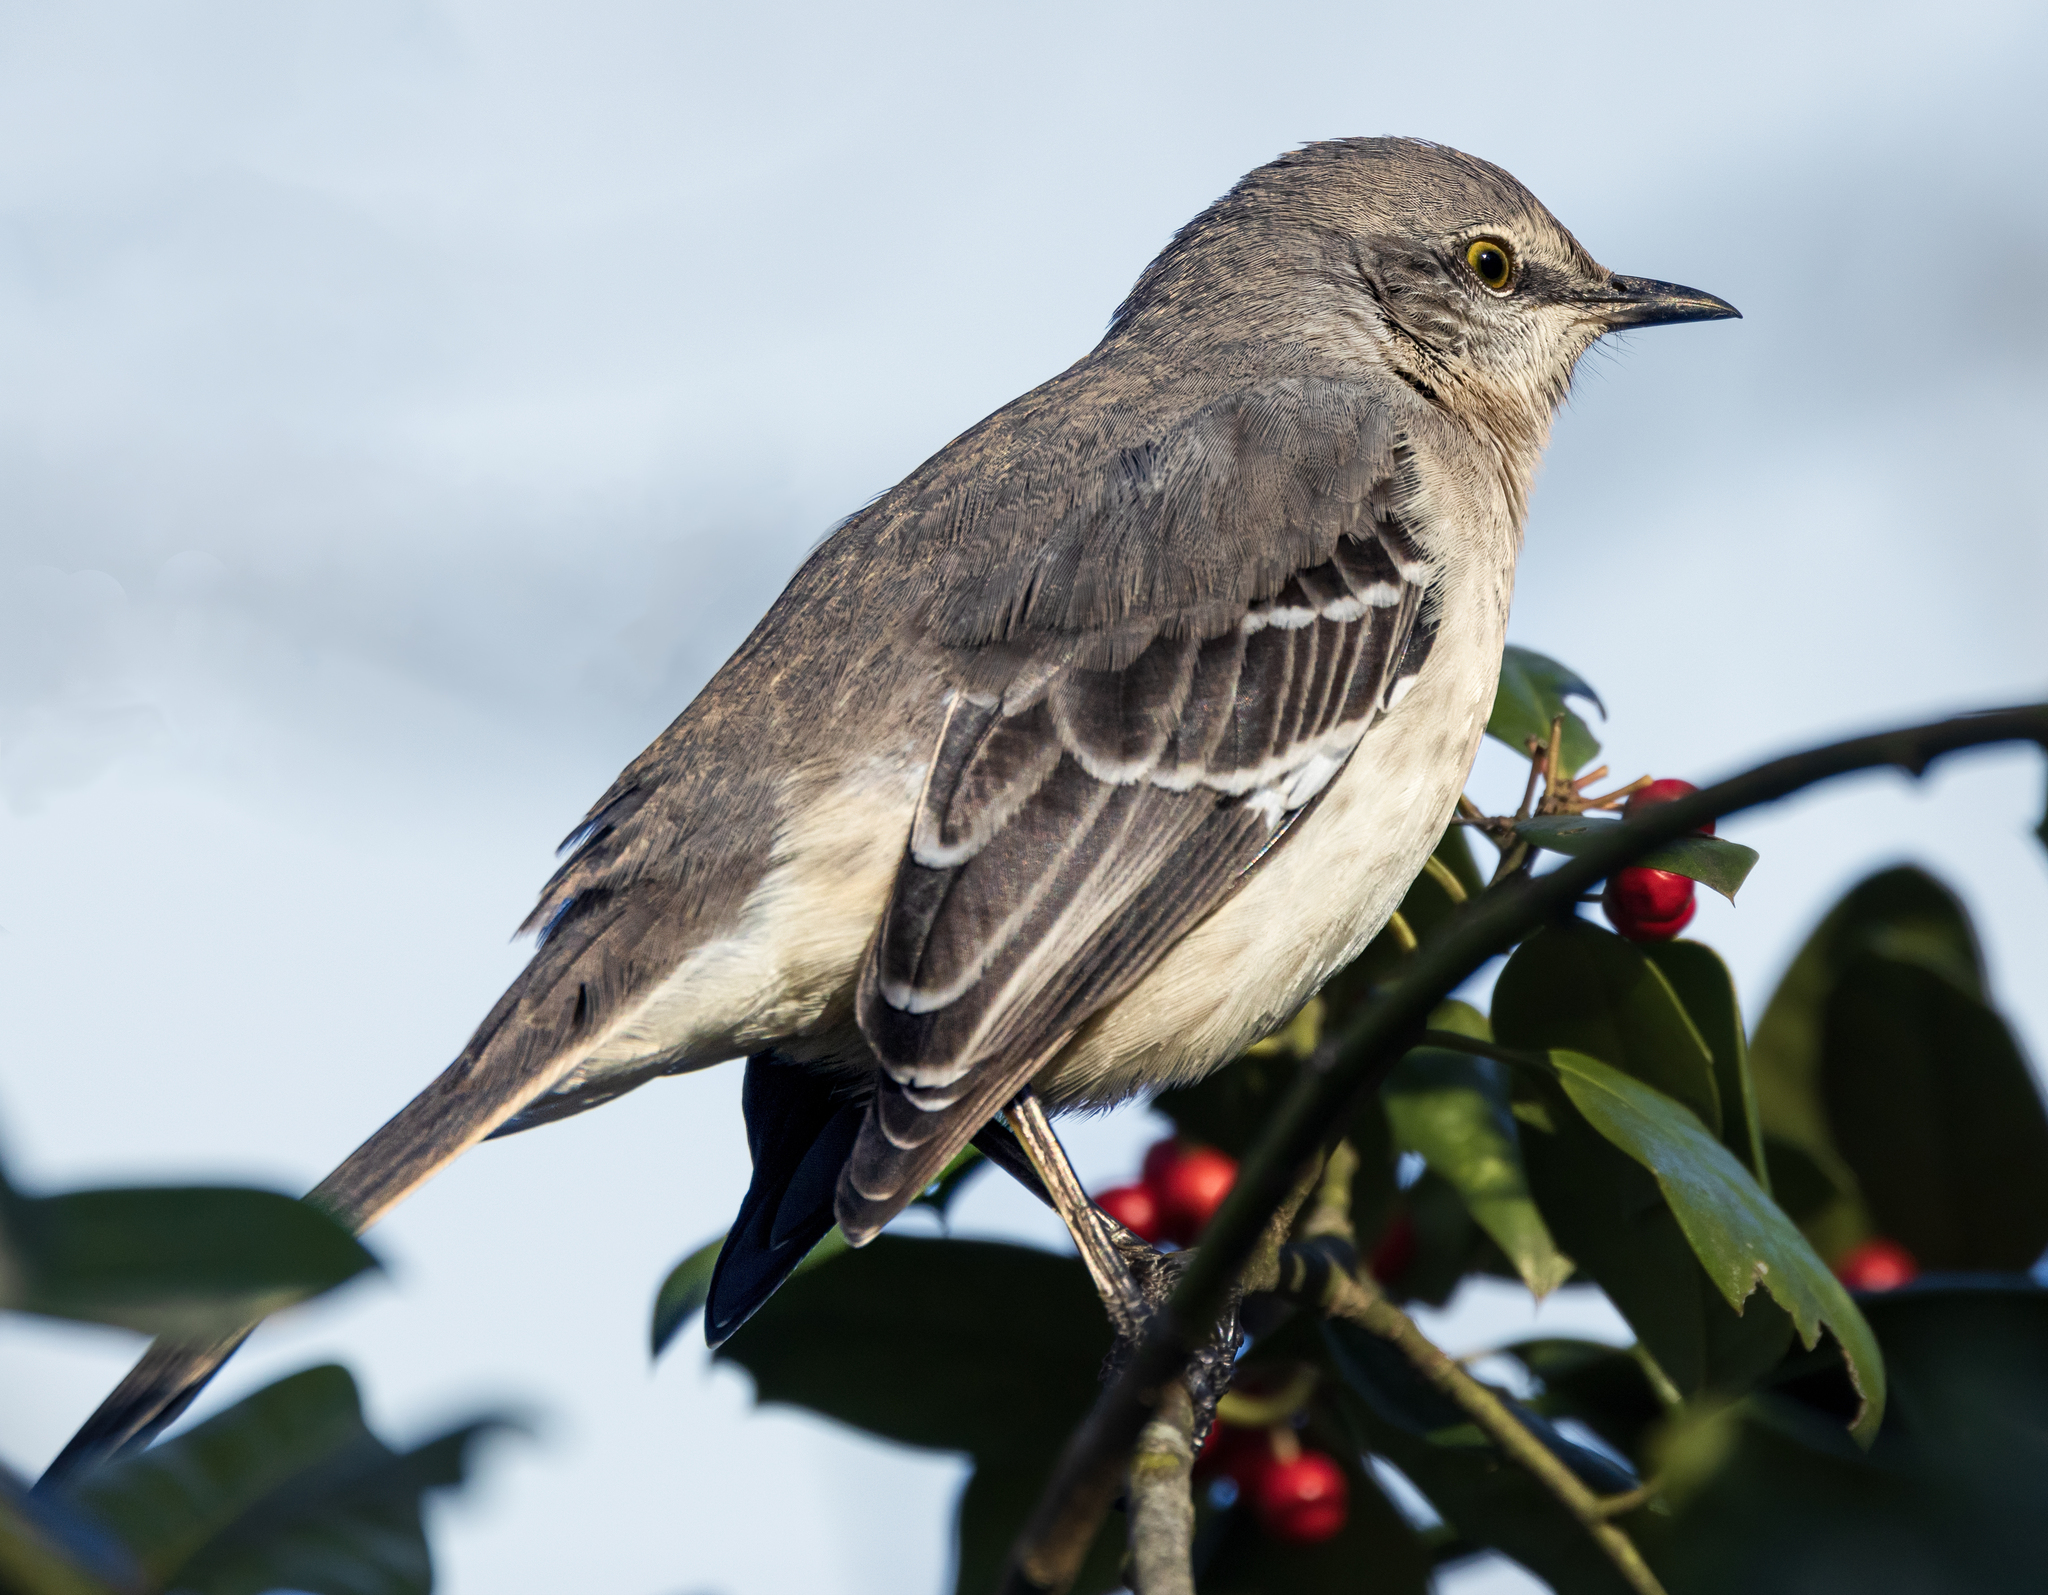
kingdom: Animalia
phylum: Chordata
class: Aves
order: Passeriformes
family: Mimidae
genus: Mimus
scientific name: Mimus polyglottos
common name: Northern mockingbird
